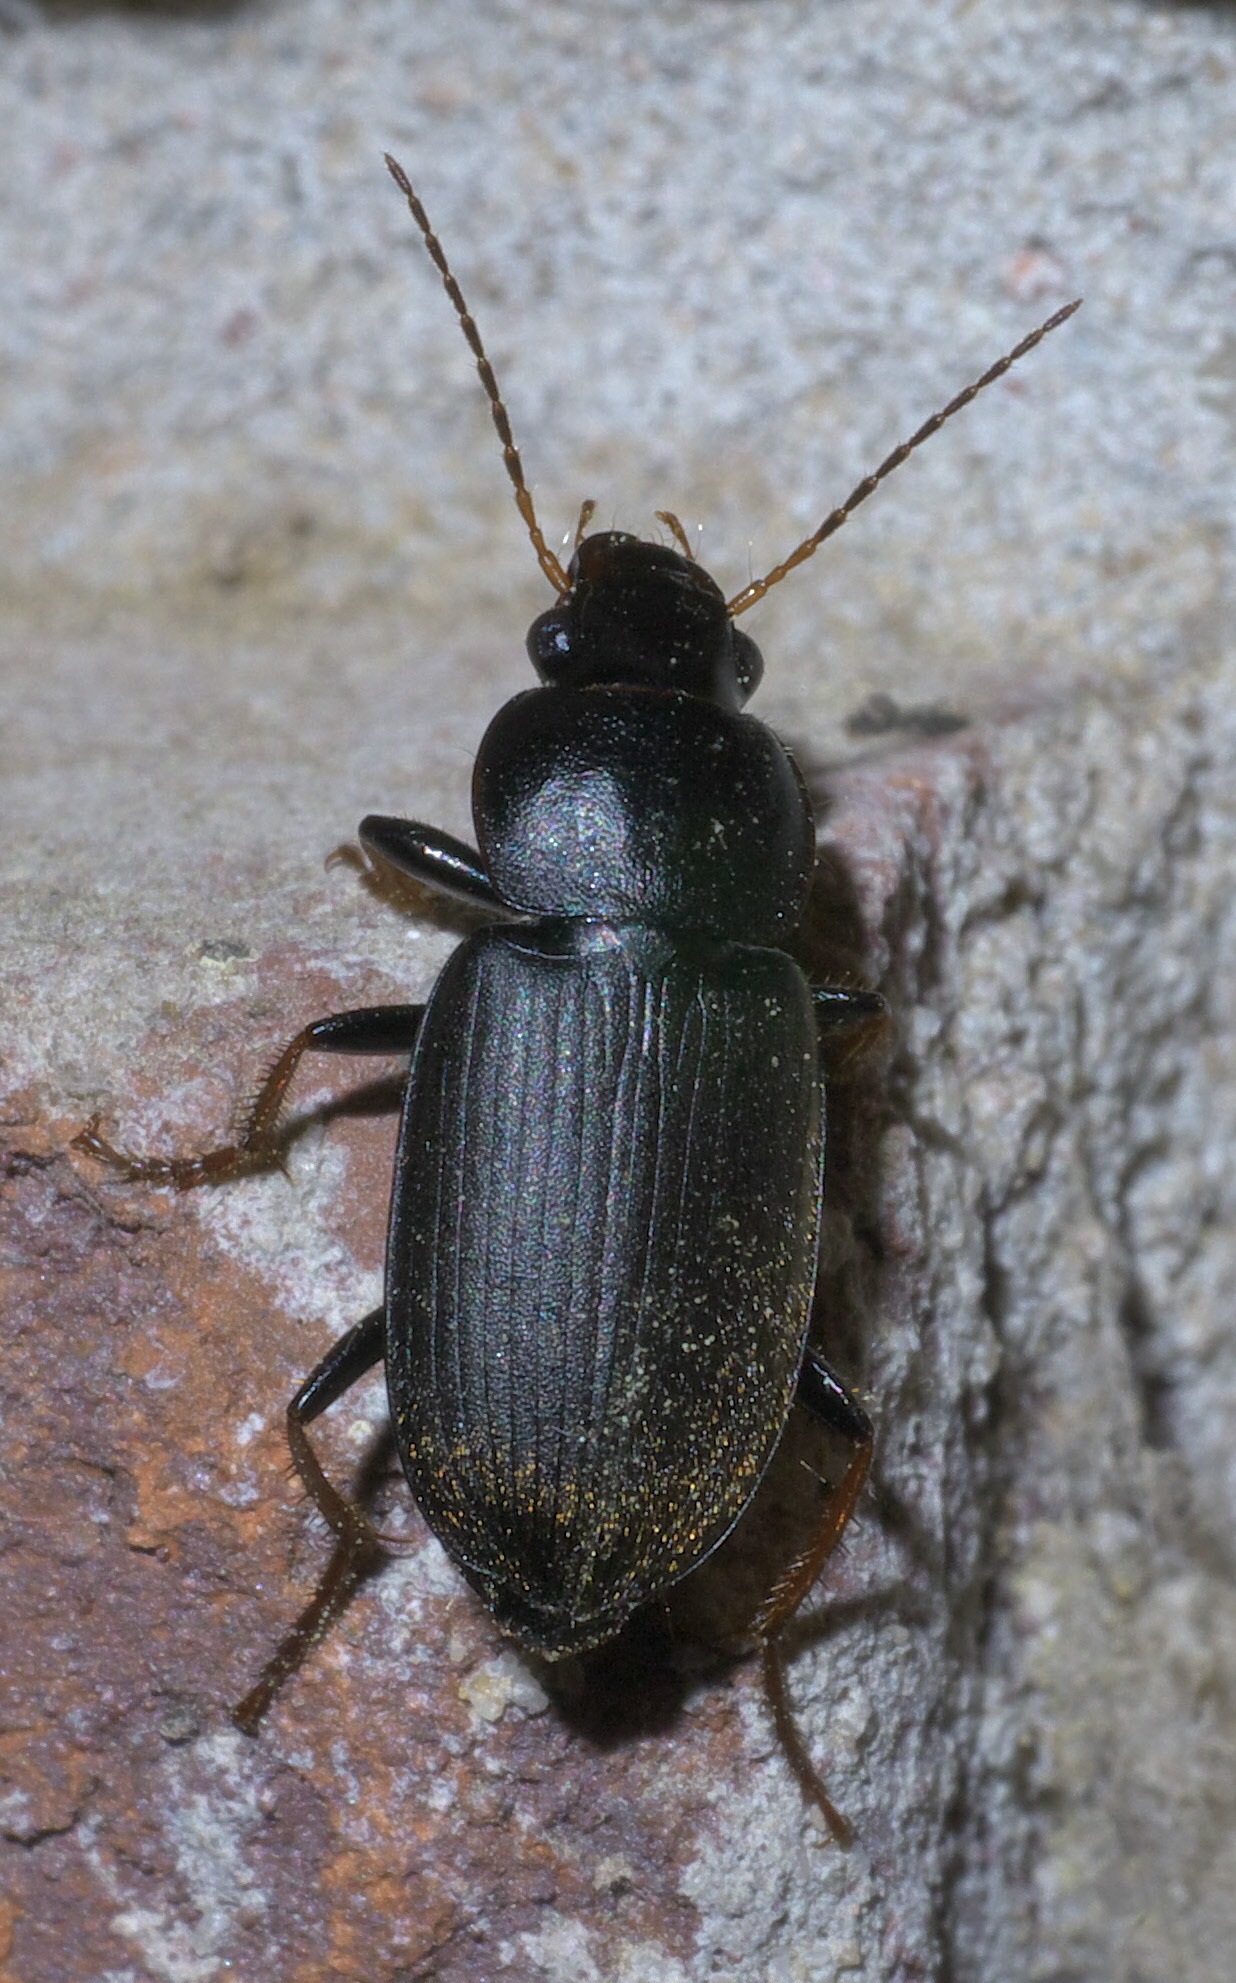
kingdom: Animalia
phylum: Arthropoda
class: Insecta
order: Coleoptera
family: Carabidae
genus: Amphasia
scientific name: Amphasia sericea
